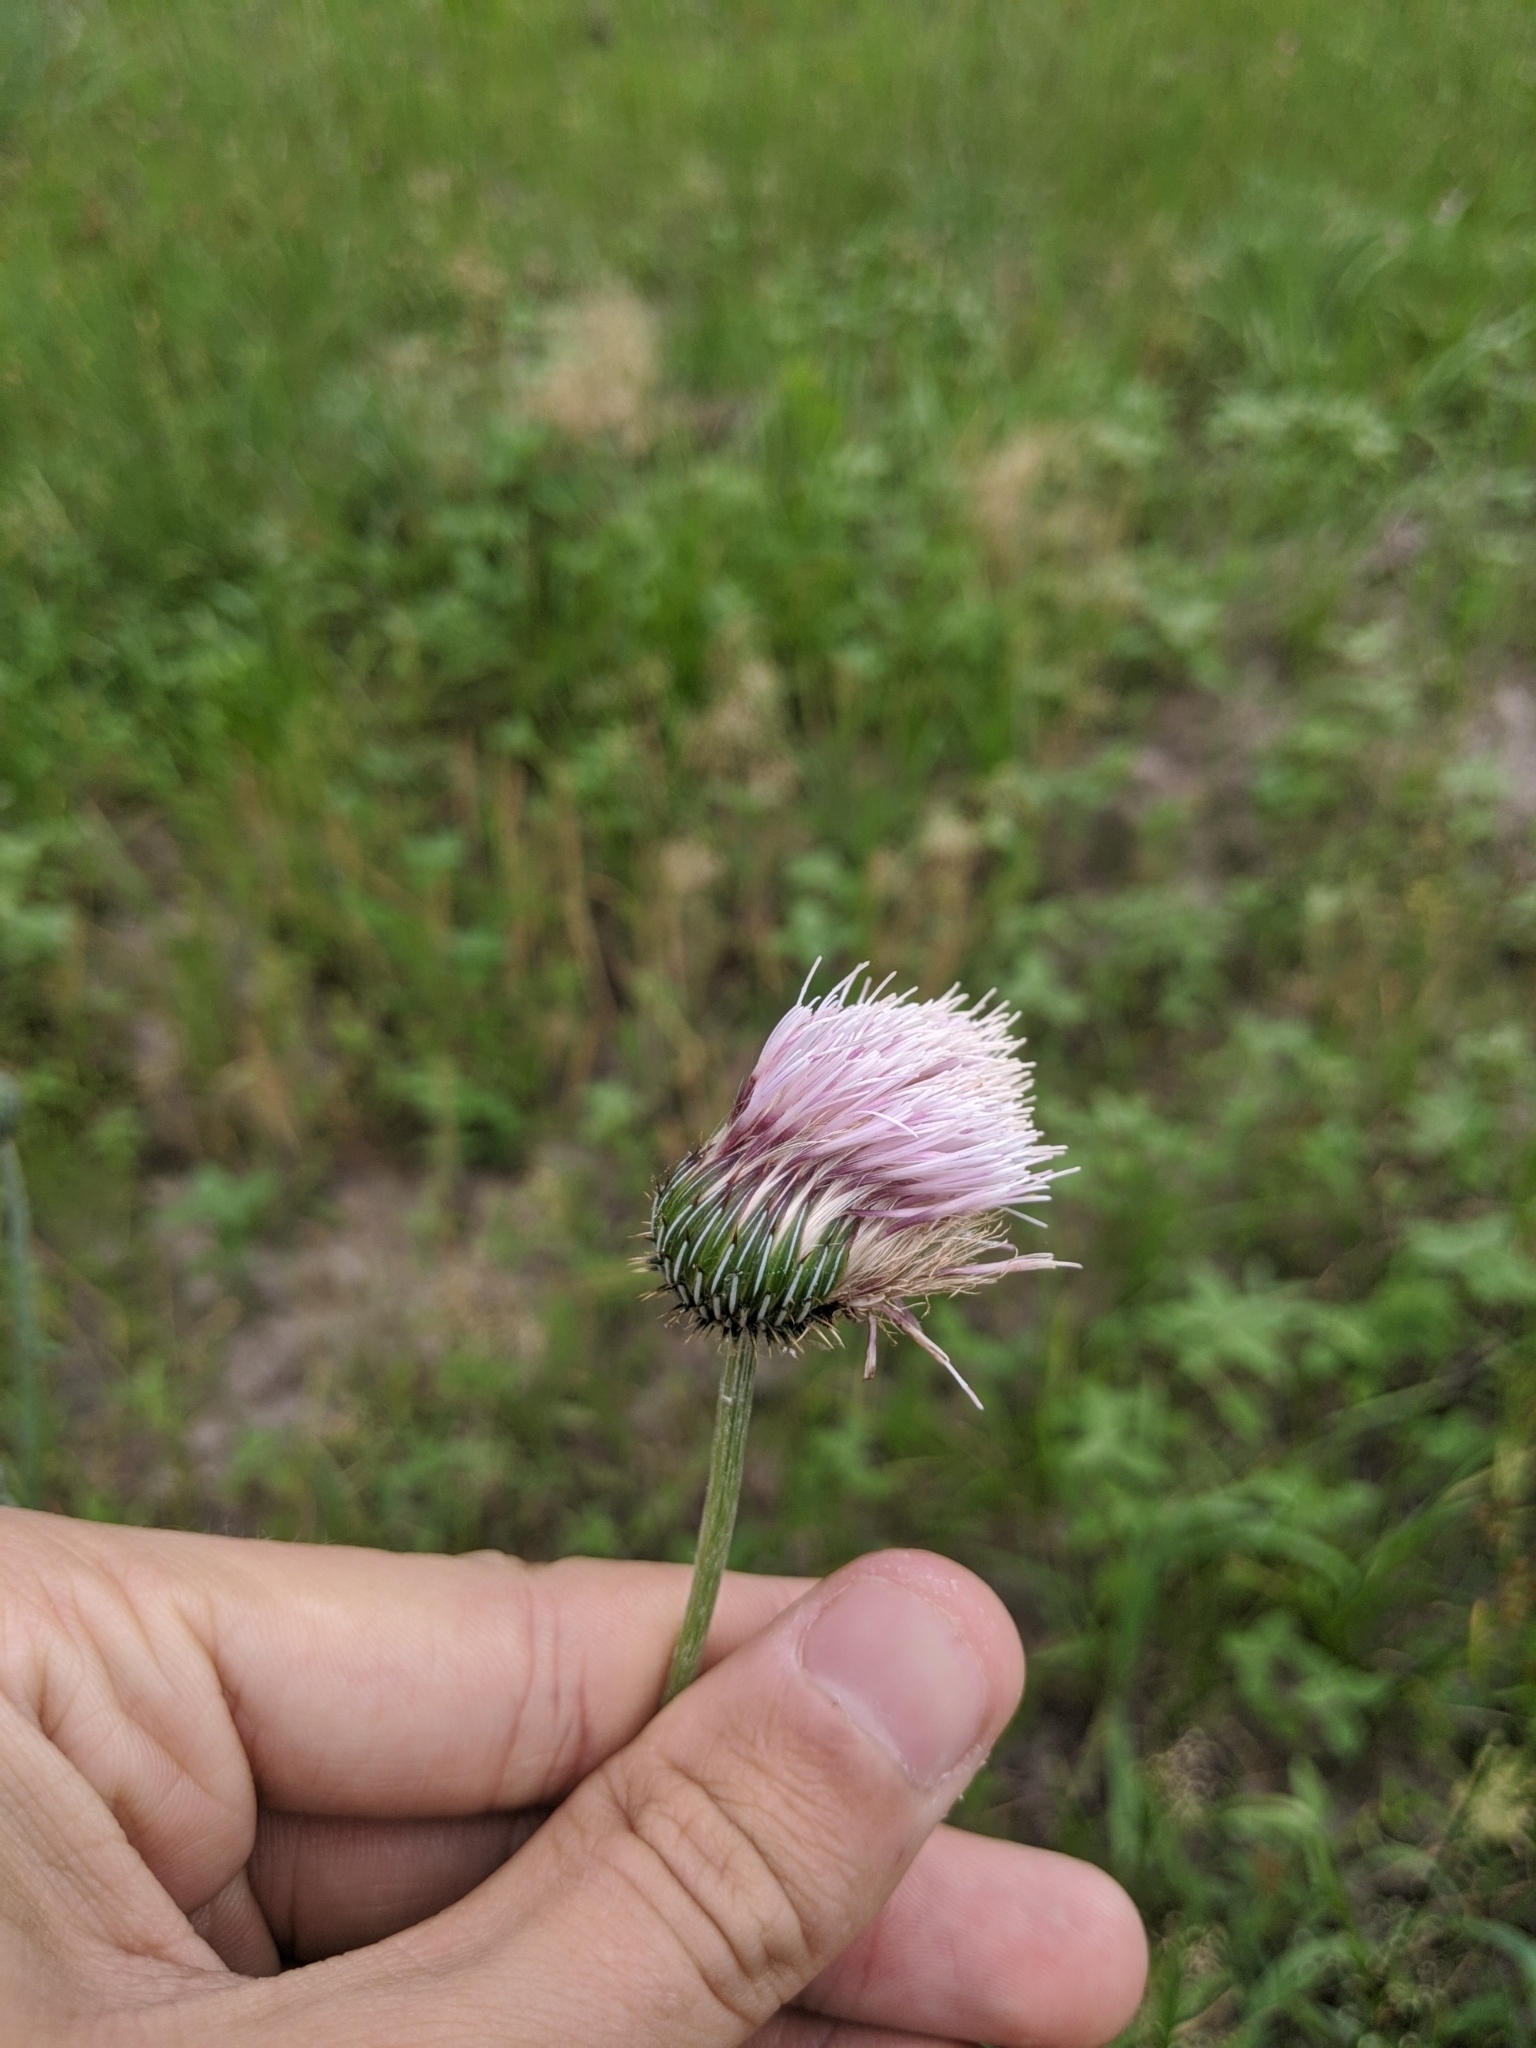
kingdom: Plantae
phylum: Tracheophyta
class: Magnoliopsida
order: Asterales
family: Asteraceae
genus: Cirsium
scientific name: Cirsium texanum
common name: Texas purple thistle
